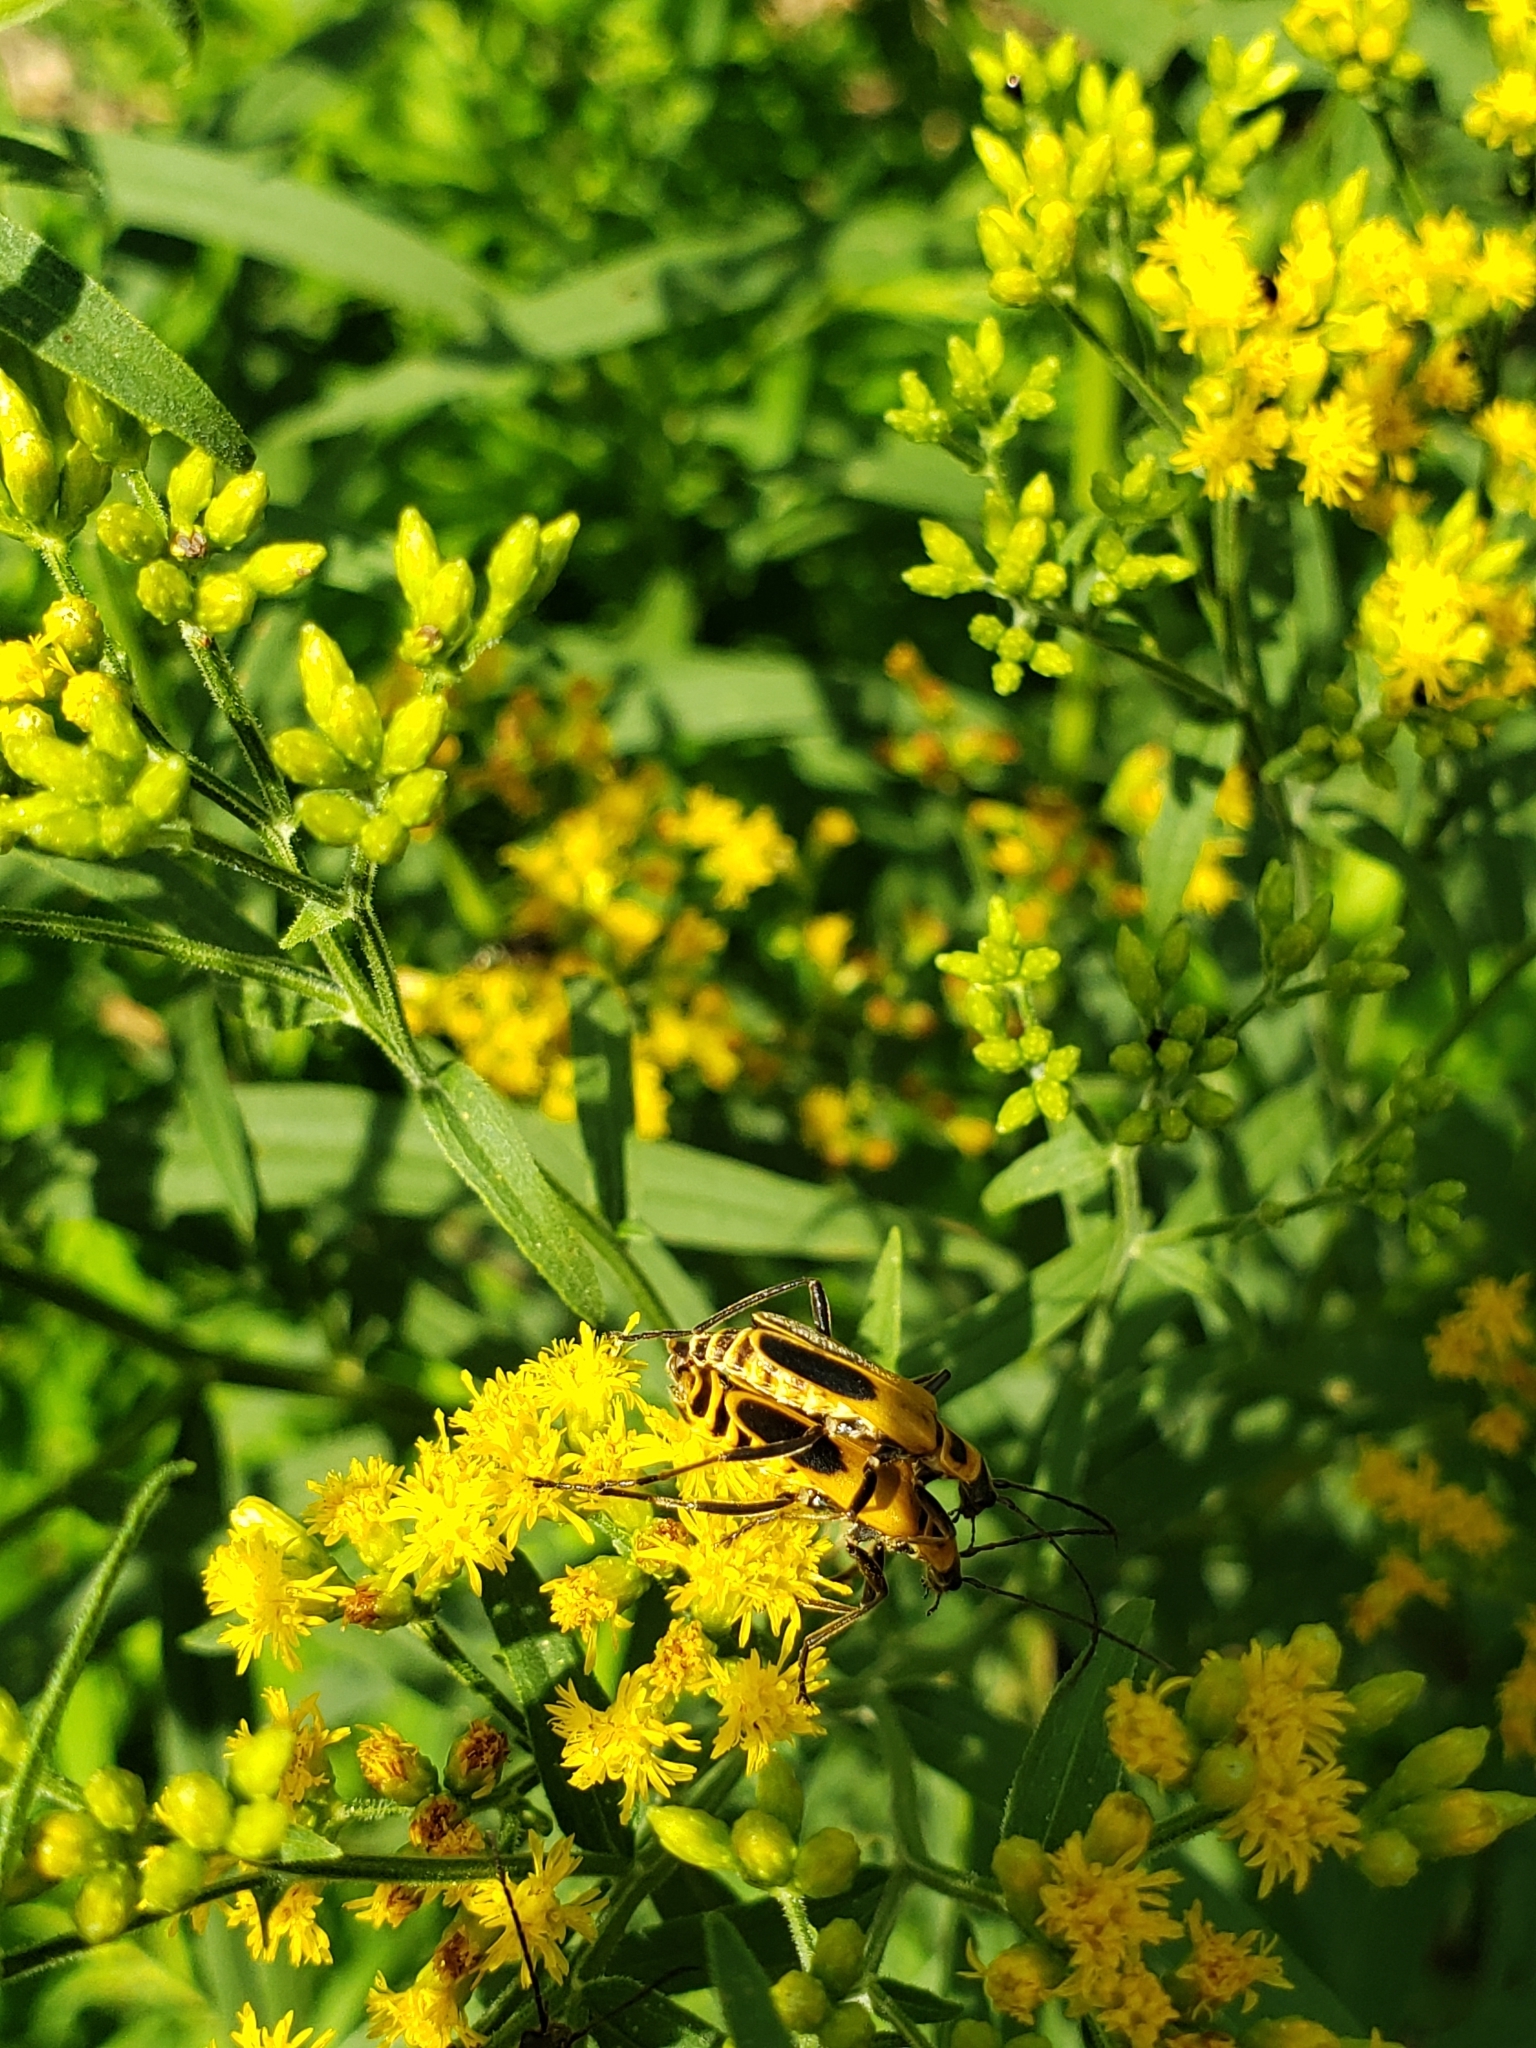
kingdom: Animalia
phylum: Arthropoda
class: Insecta
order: Coleoptera
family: Cantharidae
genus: Chauliognathus
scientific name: Chauliognathus pensylvanicus
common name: Goldenrod soldier beetle
